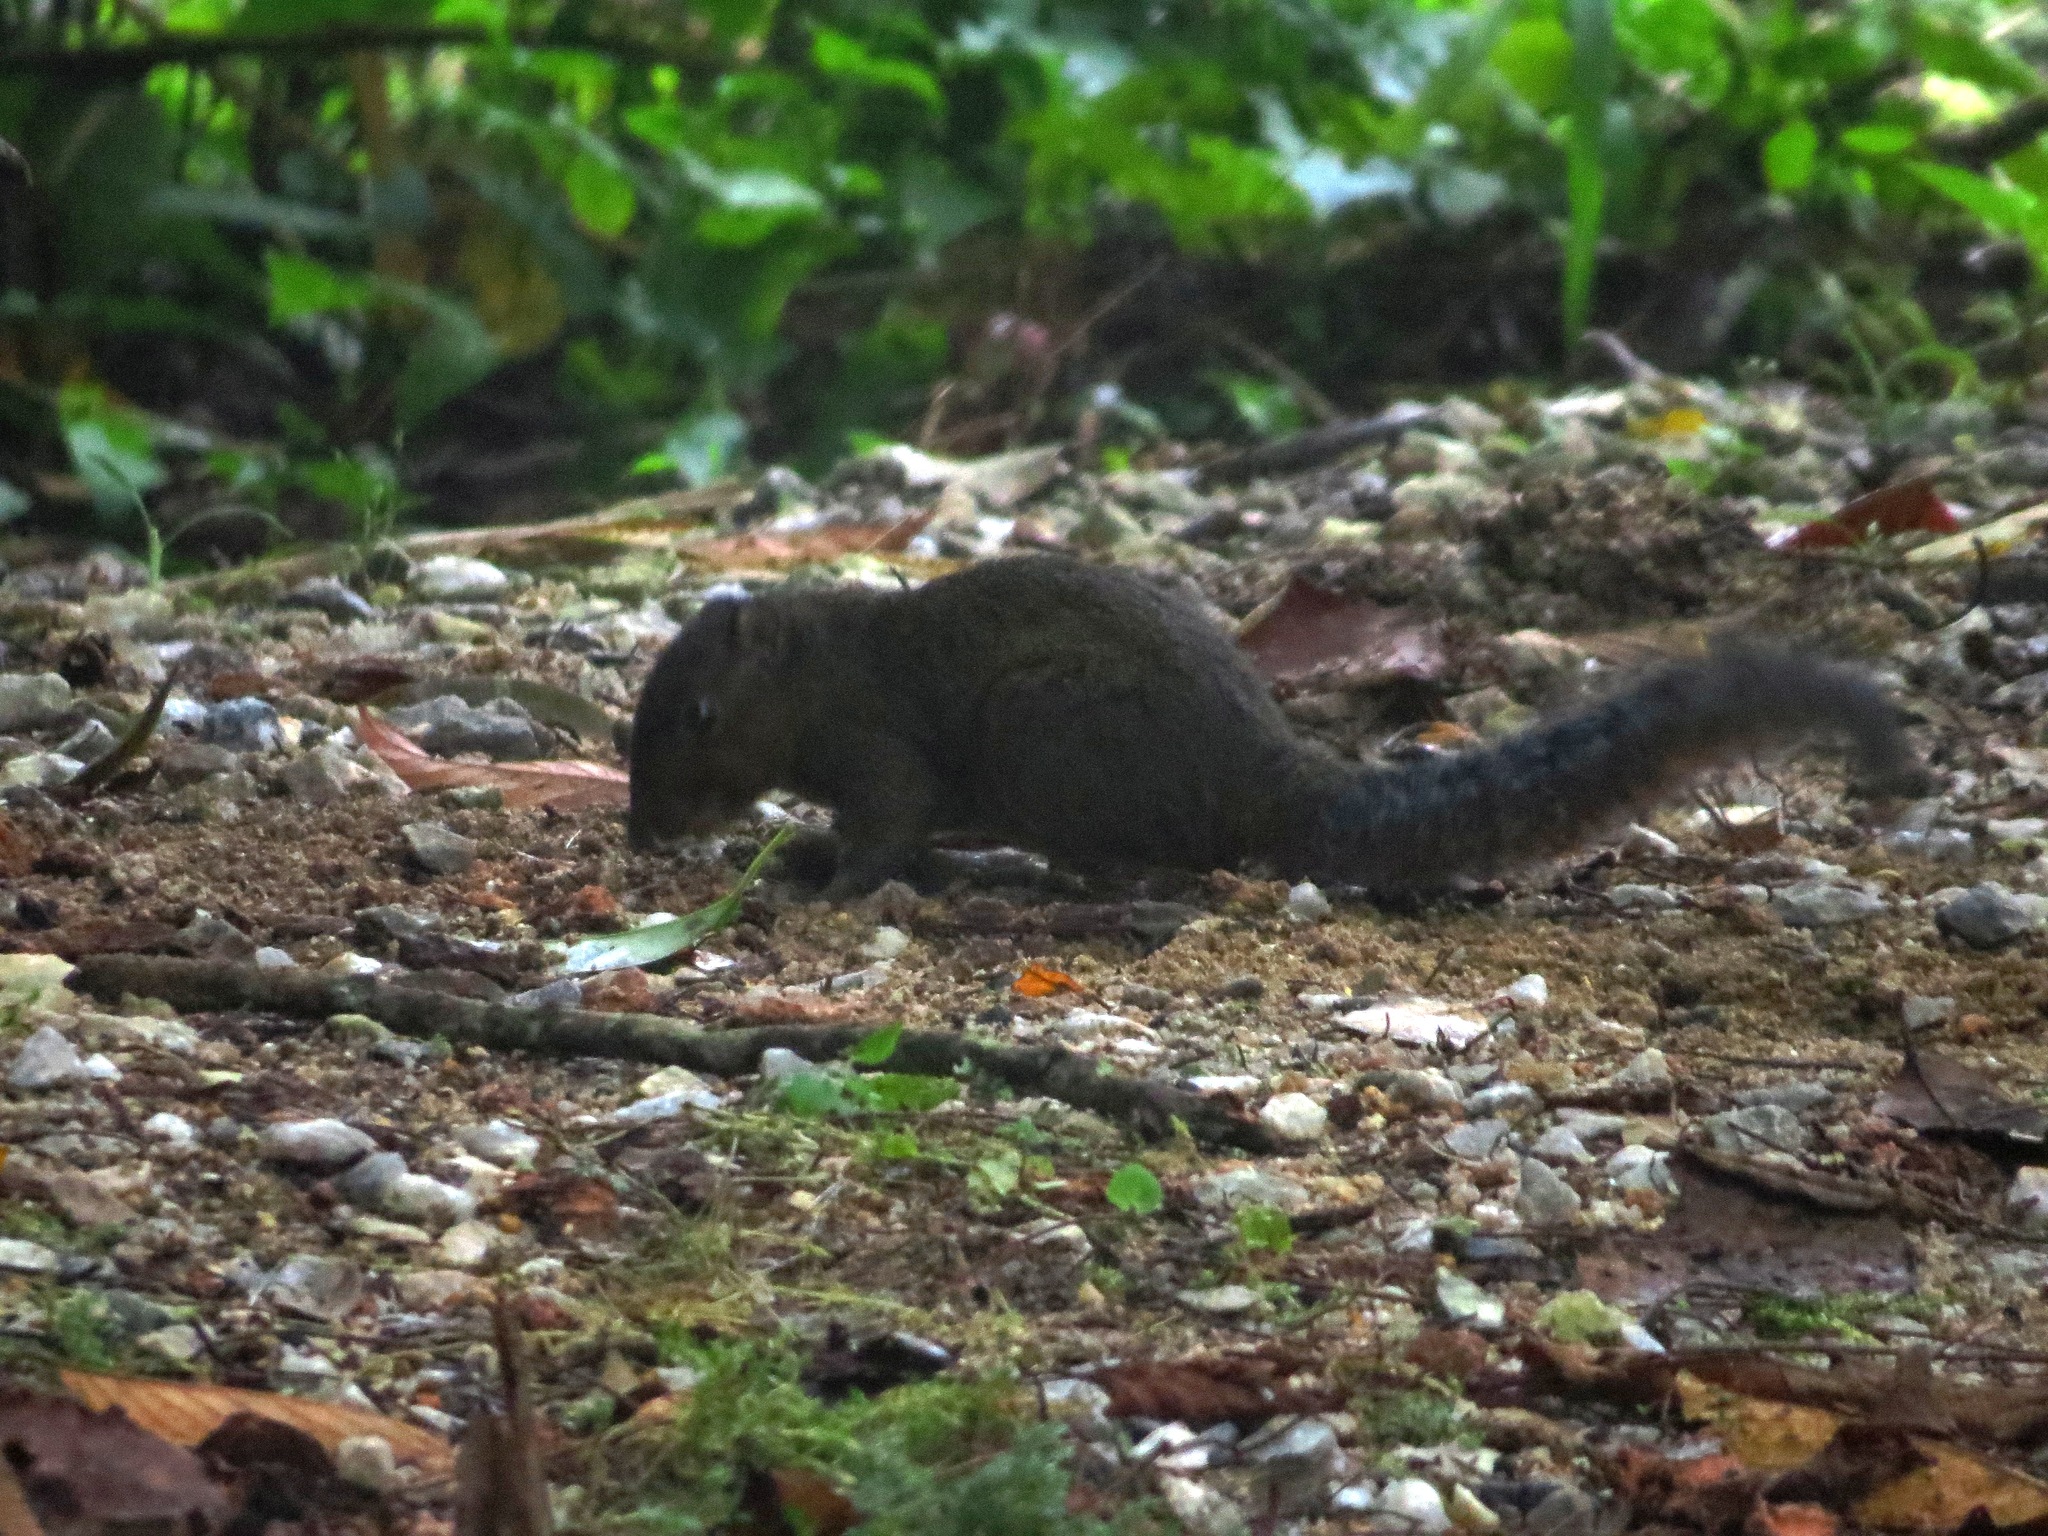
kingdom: Animalia
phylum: Chordata
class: Mammalia
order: Rodentia
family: Sciuridae
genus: Dremomys
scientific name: Dremomys rufigenis
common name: Asian red-cheeked squirrel
